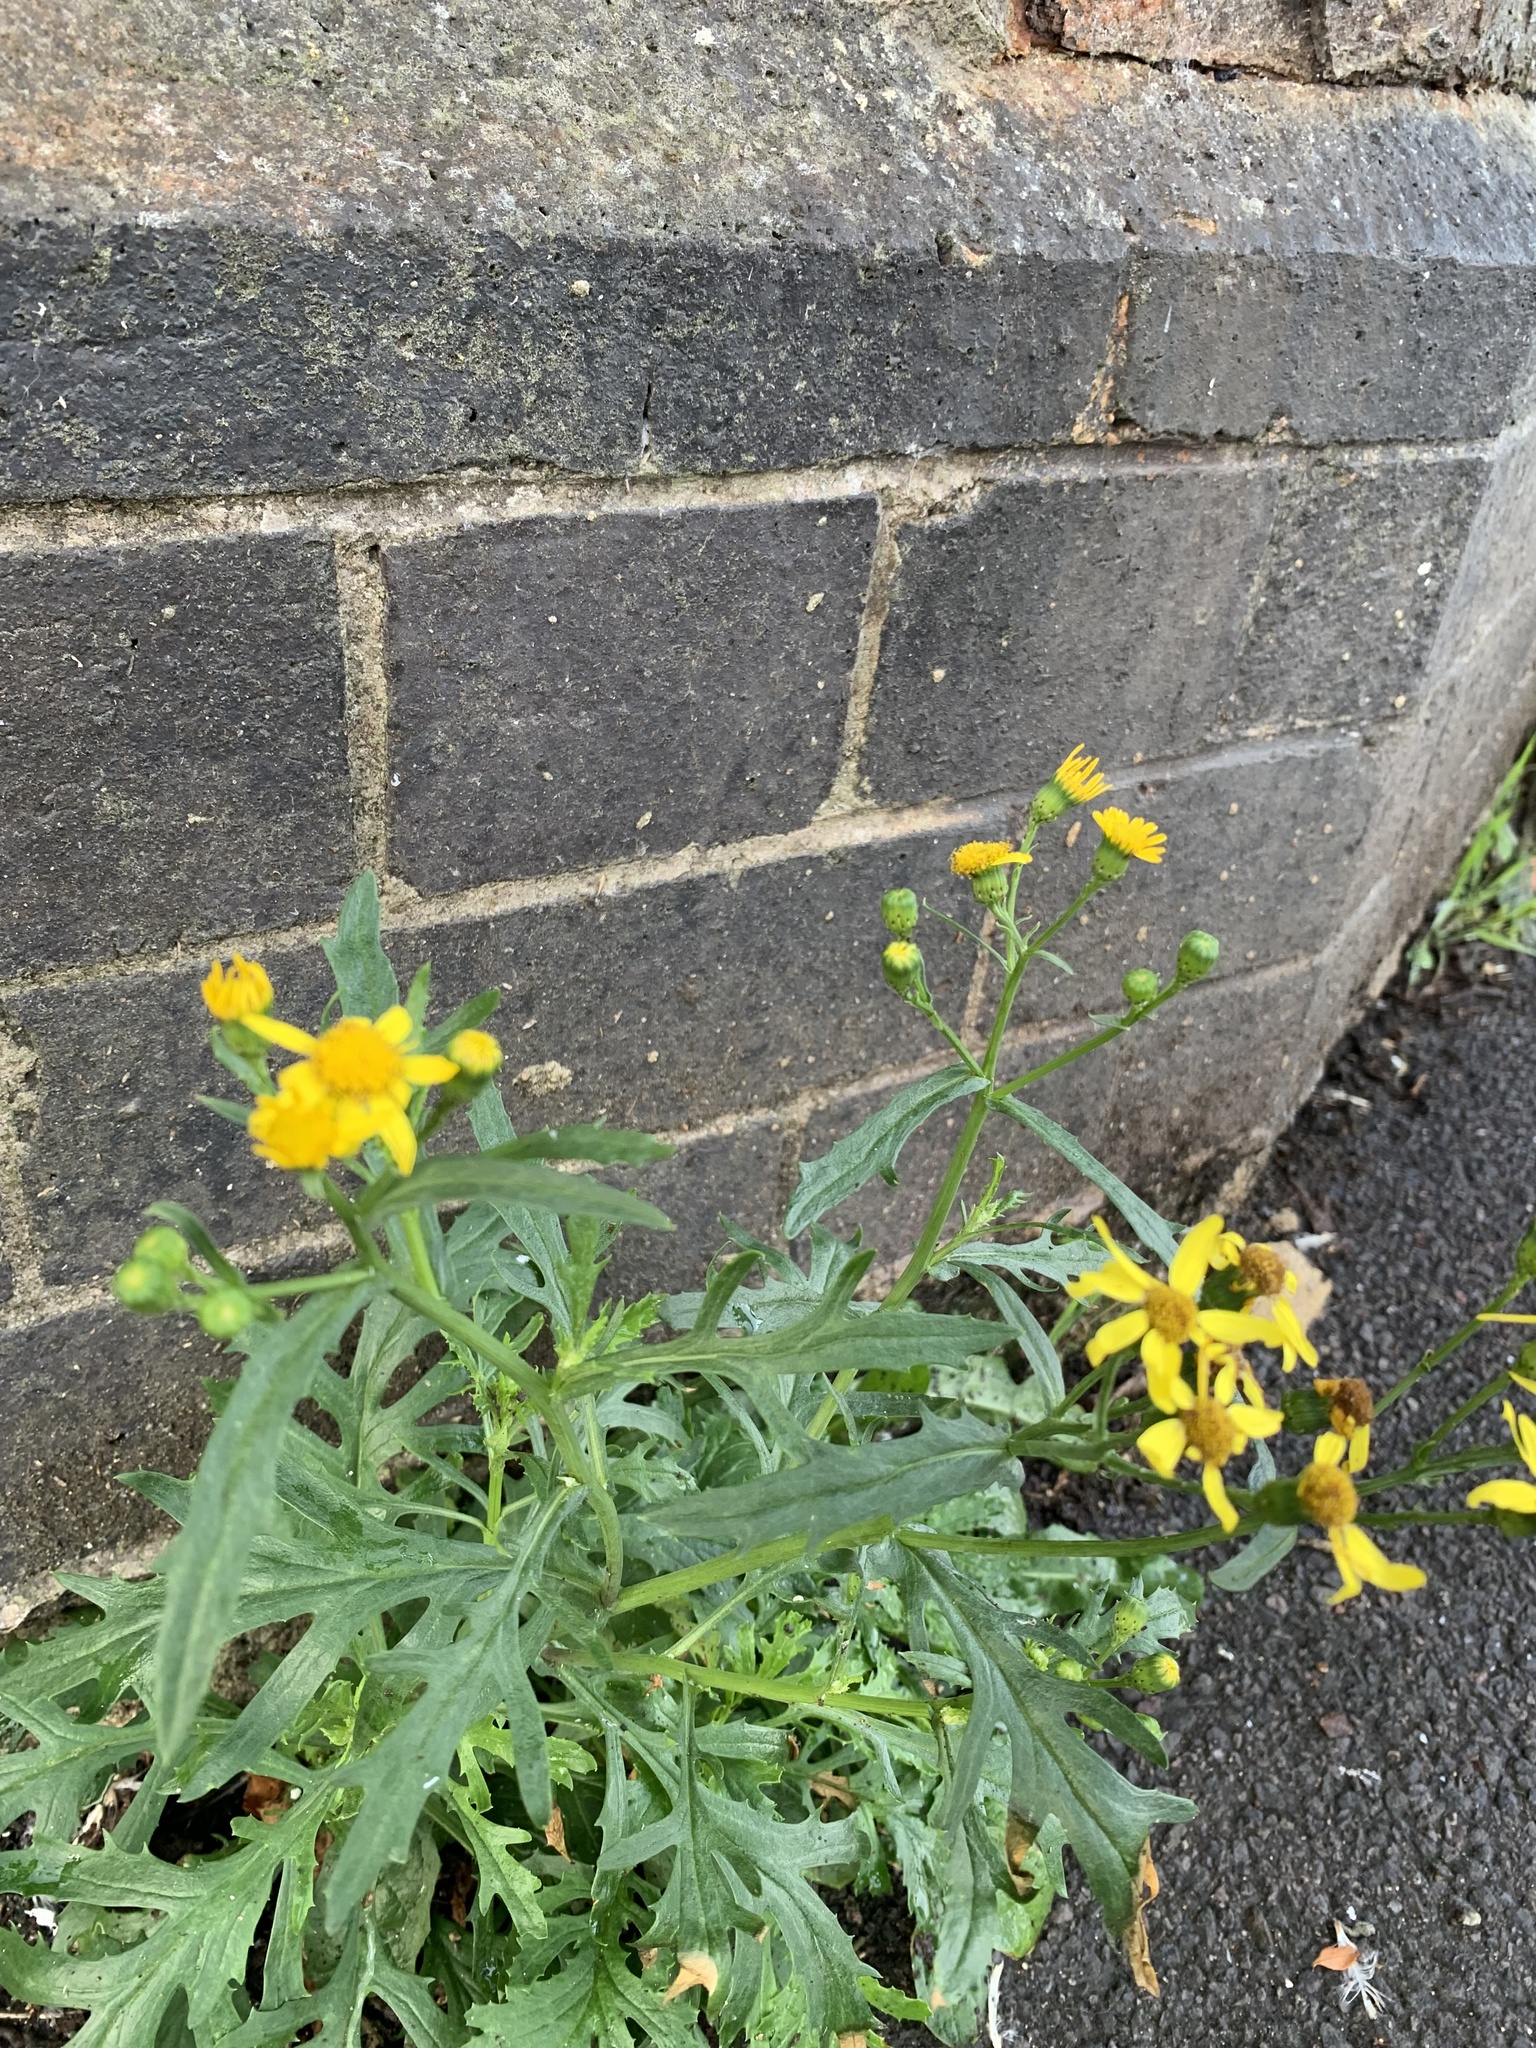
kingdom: Plantae
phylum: Tracheophyta
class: Magnoliopsida
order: Asterales
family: Asteraceae
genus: Senecio
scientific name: Senecio squalidus
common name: Oxford ragwort
